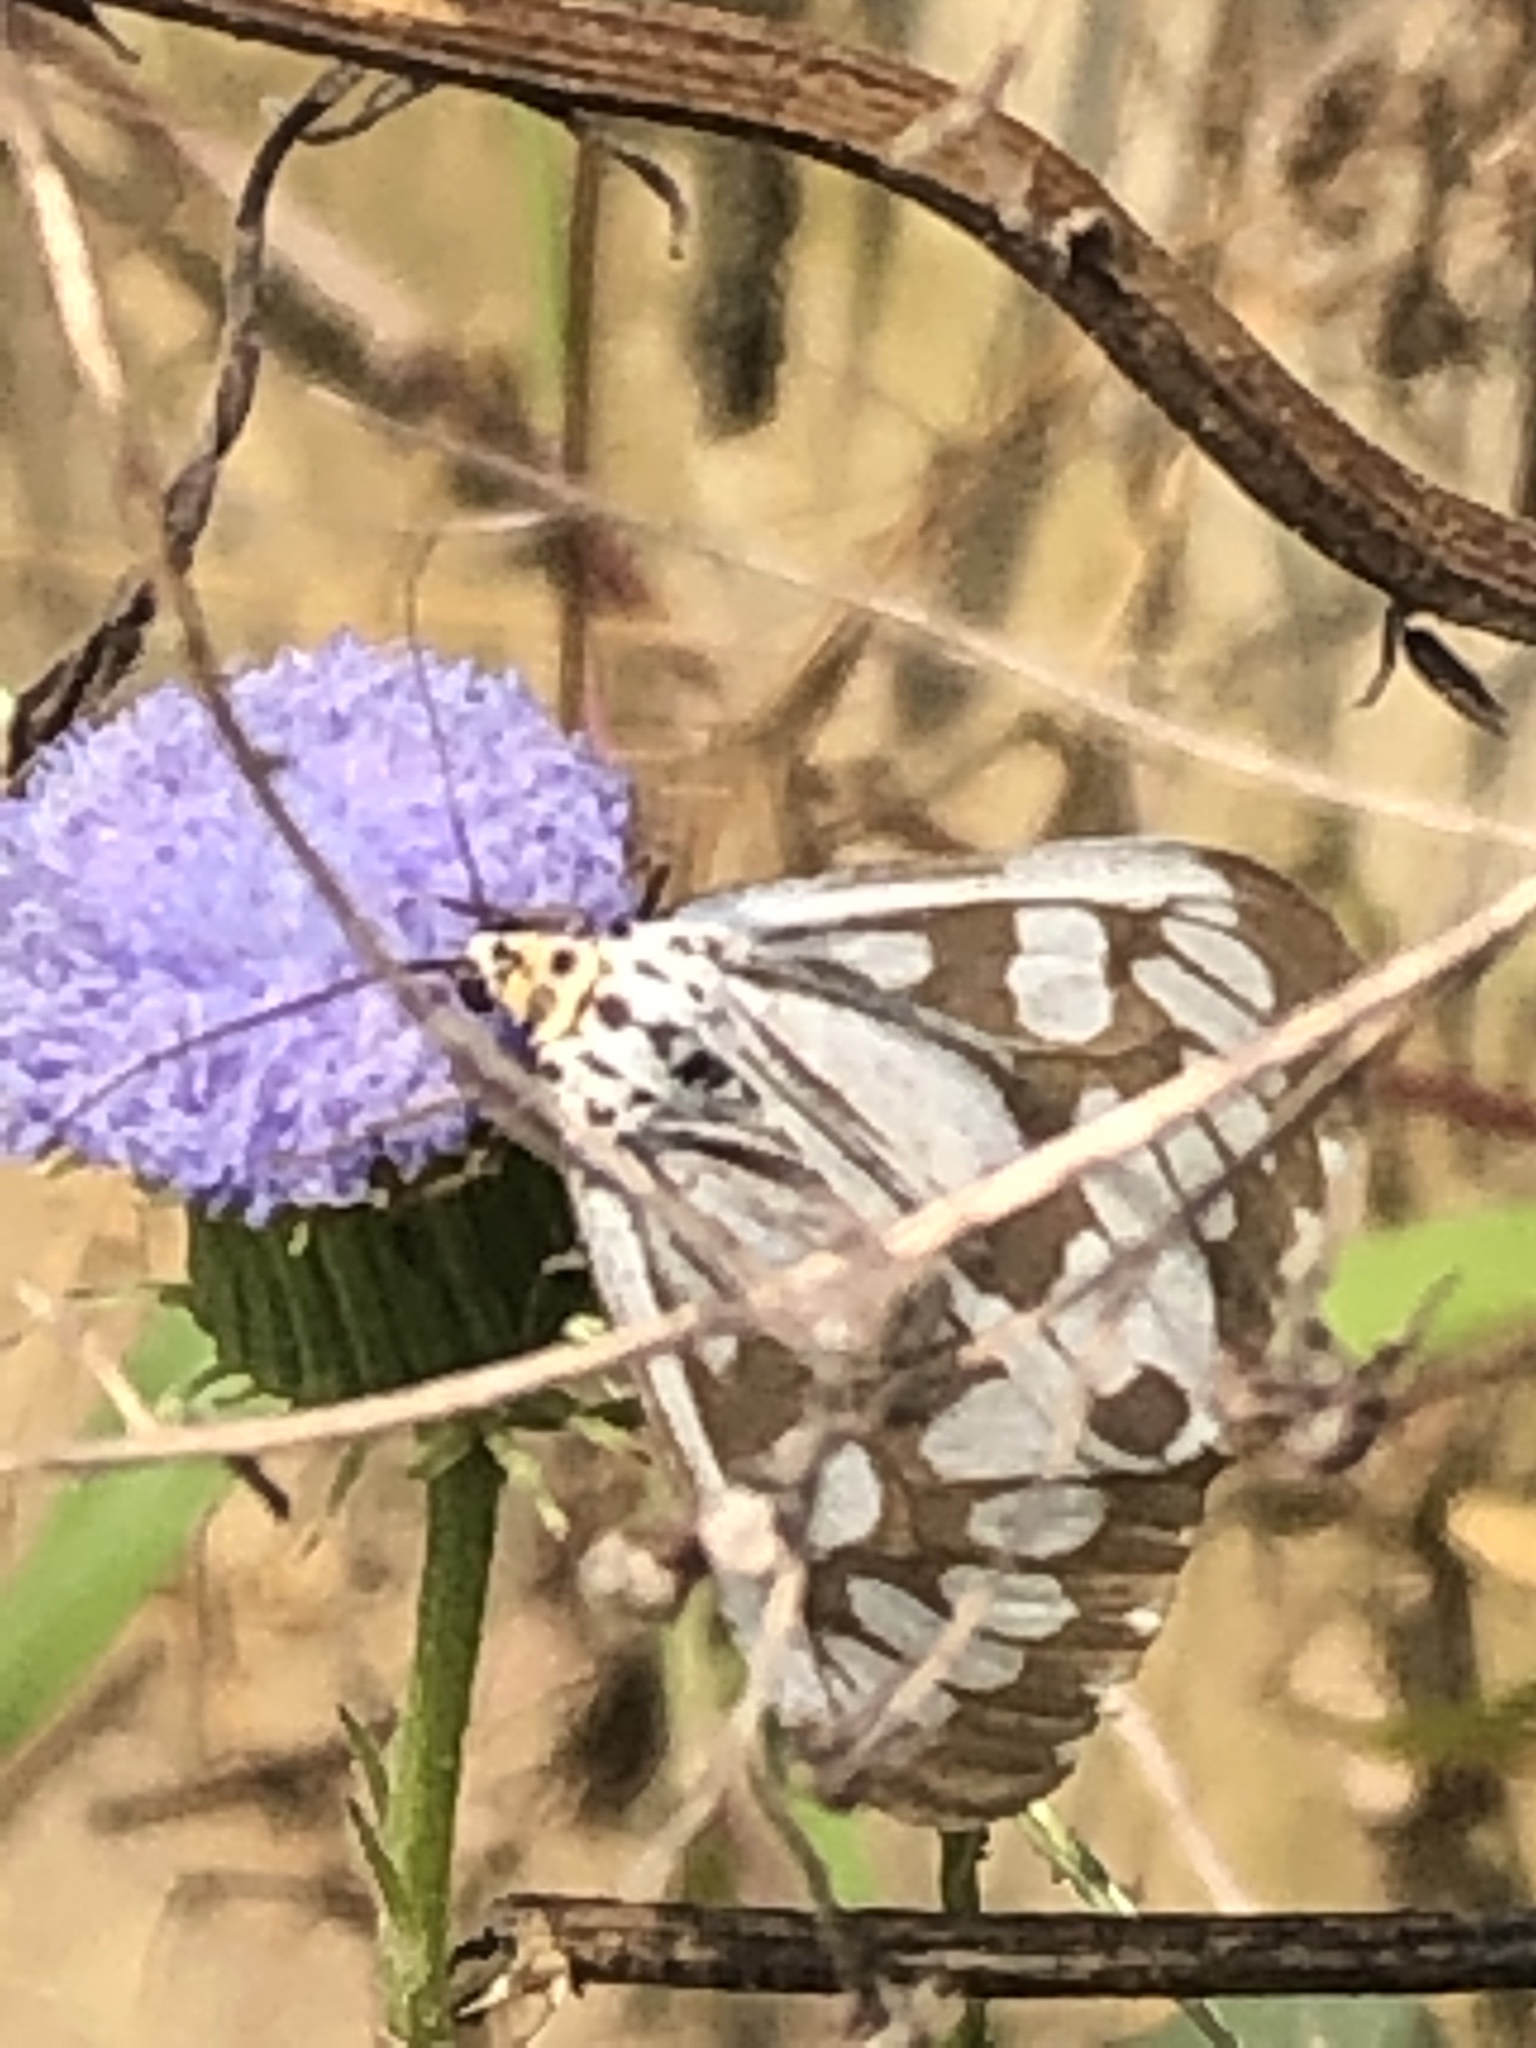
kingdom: Animalia
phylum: Arthropoda
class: Insecta
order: Lepidoptera
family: Erebidae
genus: Nyctemera
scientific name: Nyctemera adversata
